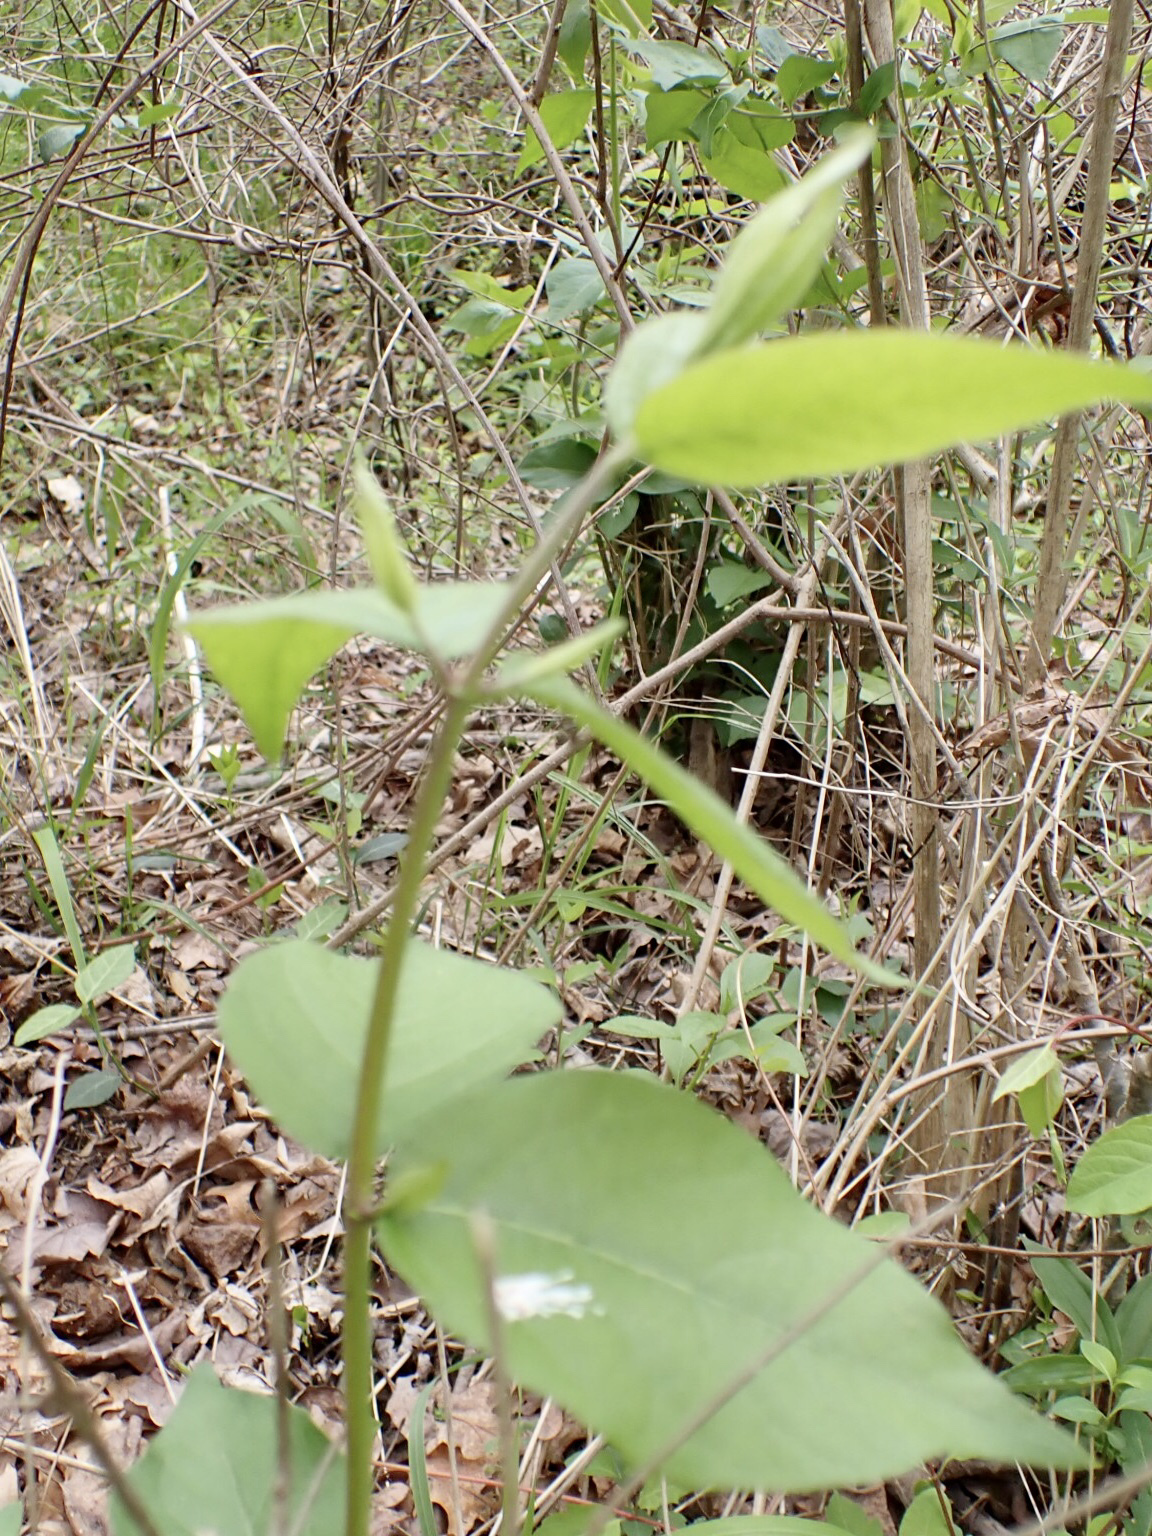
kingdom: Animalia
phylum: Arthropoda
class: Insecta
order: Diptera
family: Culicidae
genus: Aedes
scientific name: Aedes canadensis
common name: Woodland pool mosquito
